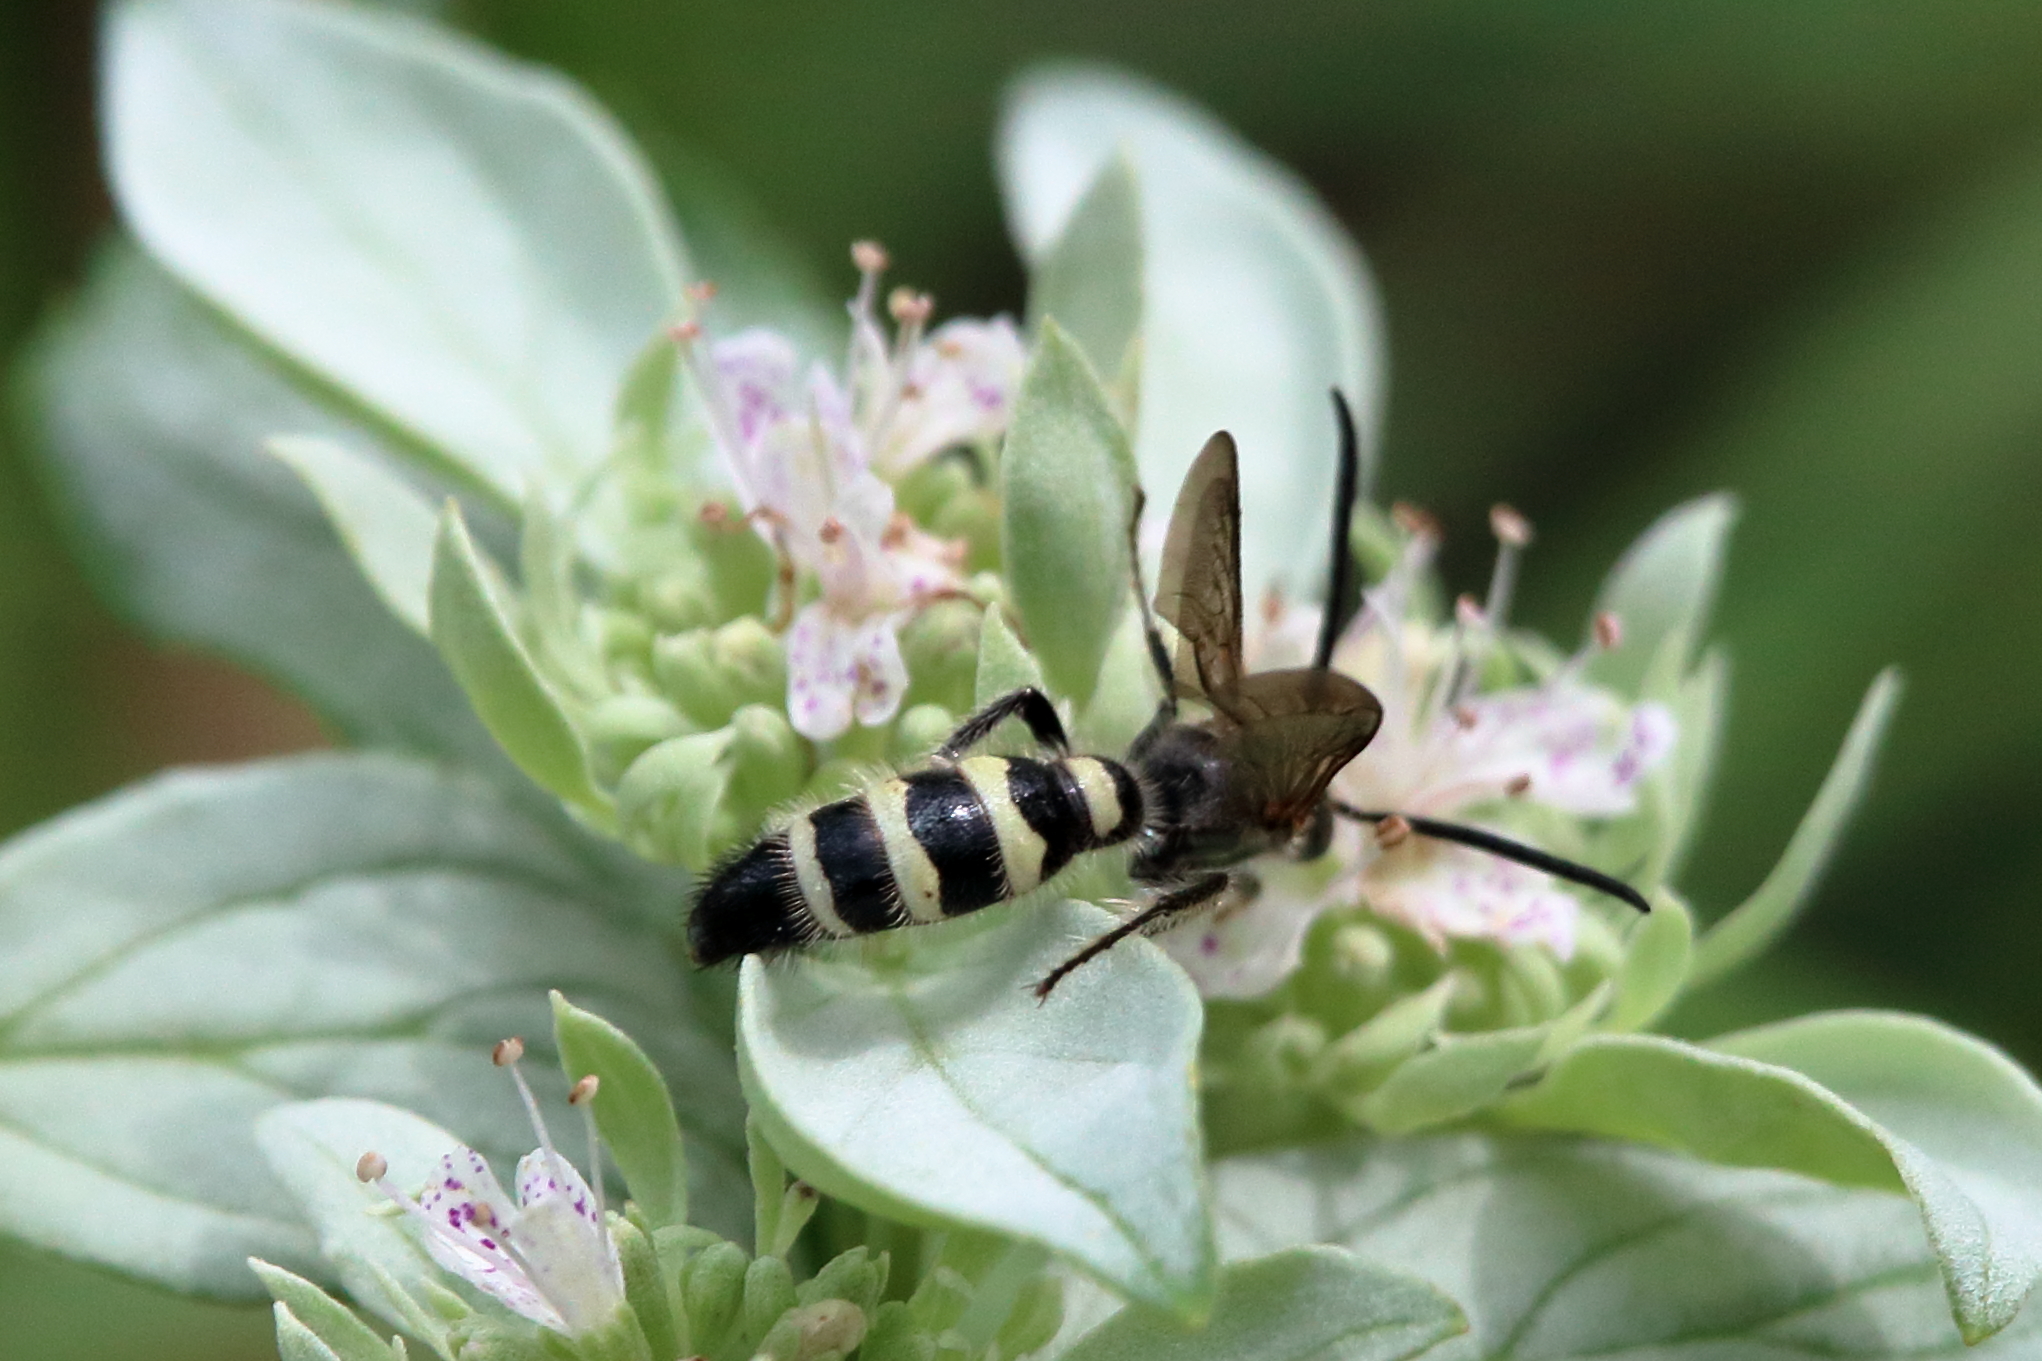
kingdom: Animalia
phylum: Arthropoda
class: Insecta
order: Hymenoptera
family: Scoliidae
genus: Dielis
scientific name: Dielis
